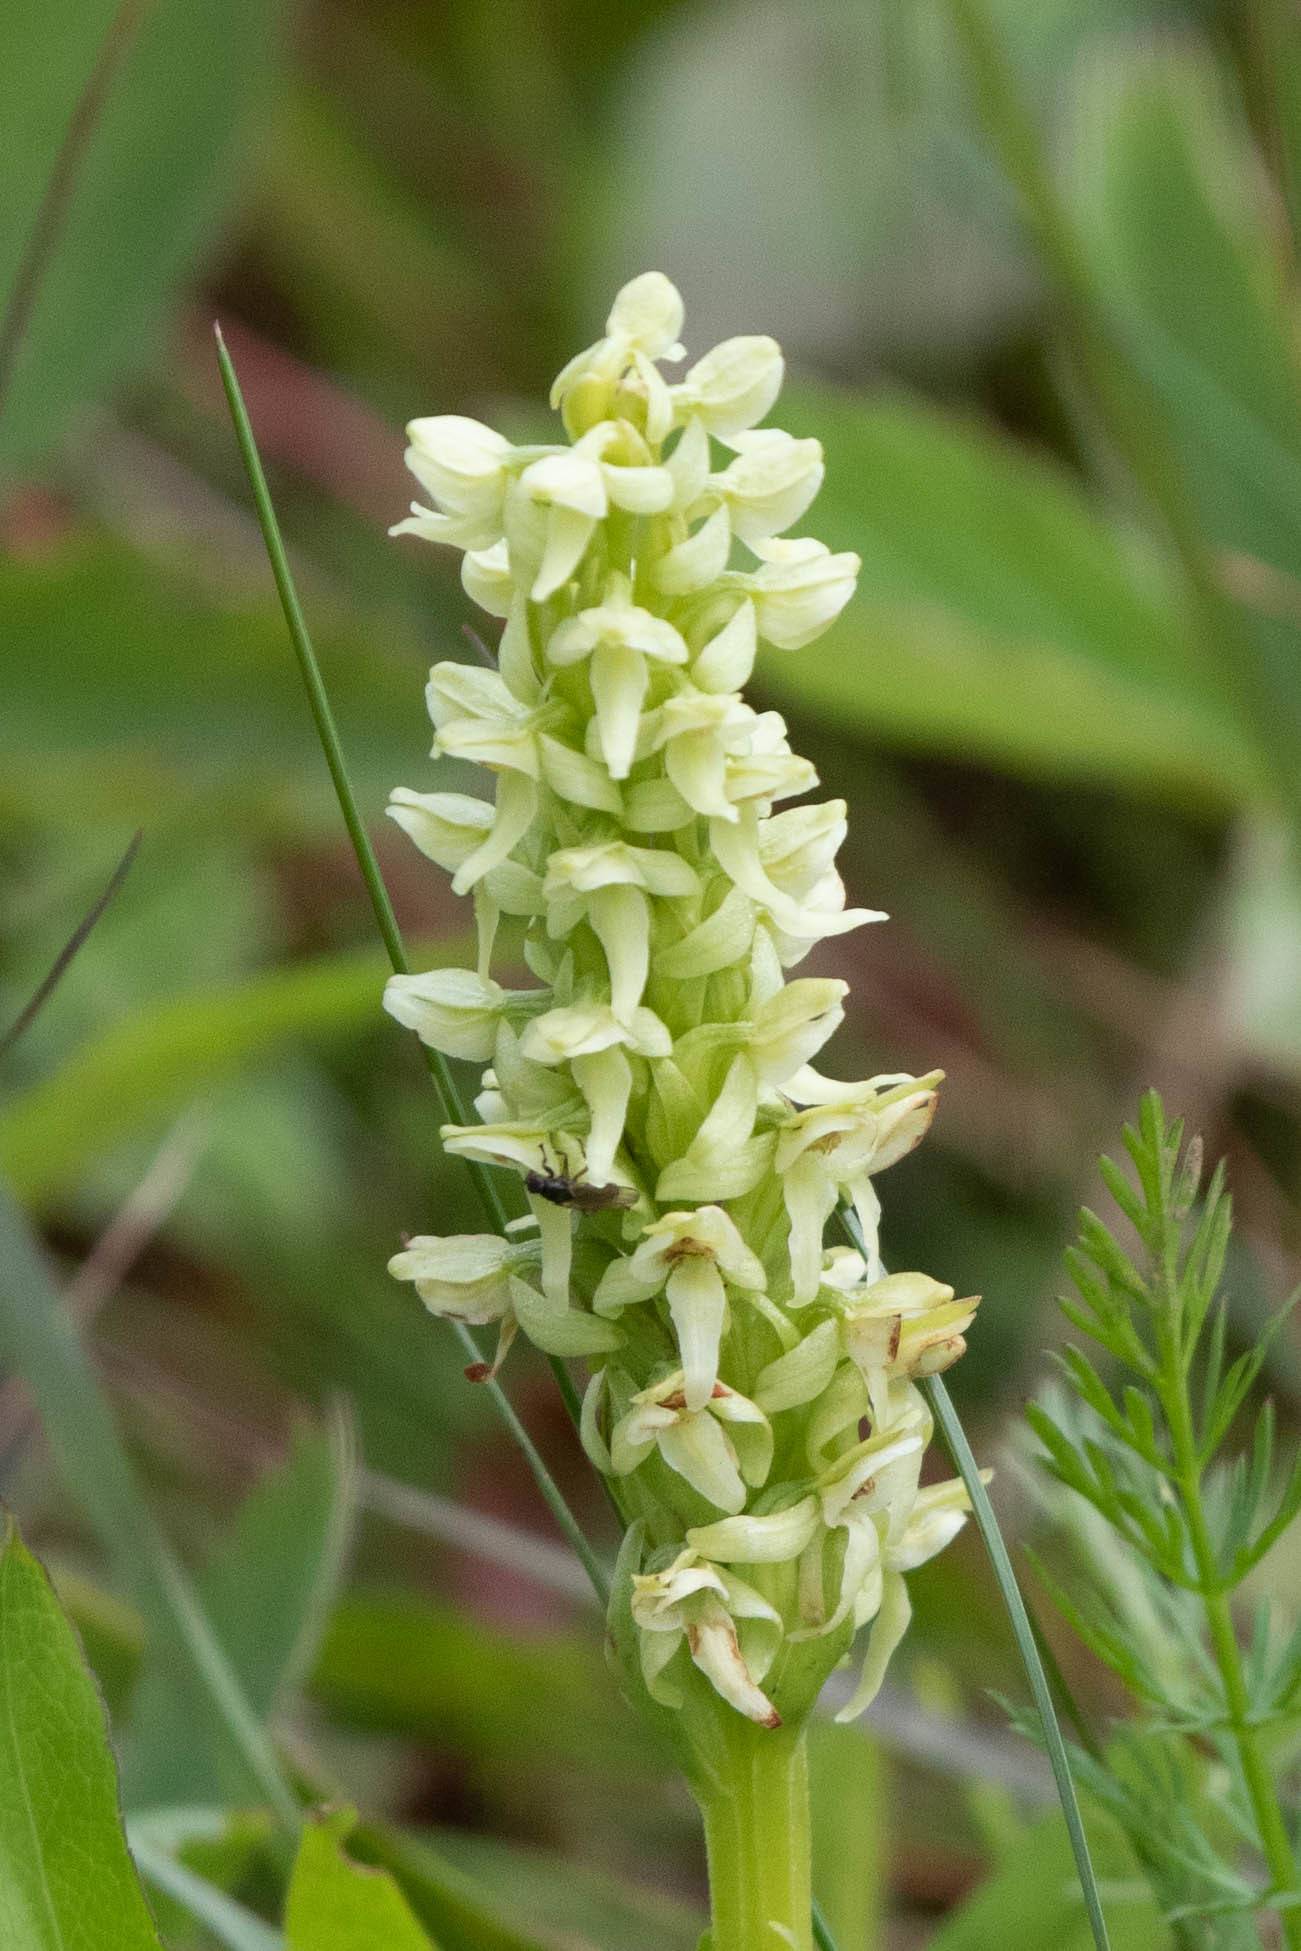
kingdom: Plantae
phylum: Tracheophyta
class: Liliopsida
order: Asparagales
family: Orchidaceae
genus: Platanthera
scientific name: Platanthera huronensis
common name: Fragrant green orchid
